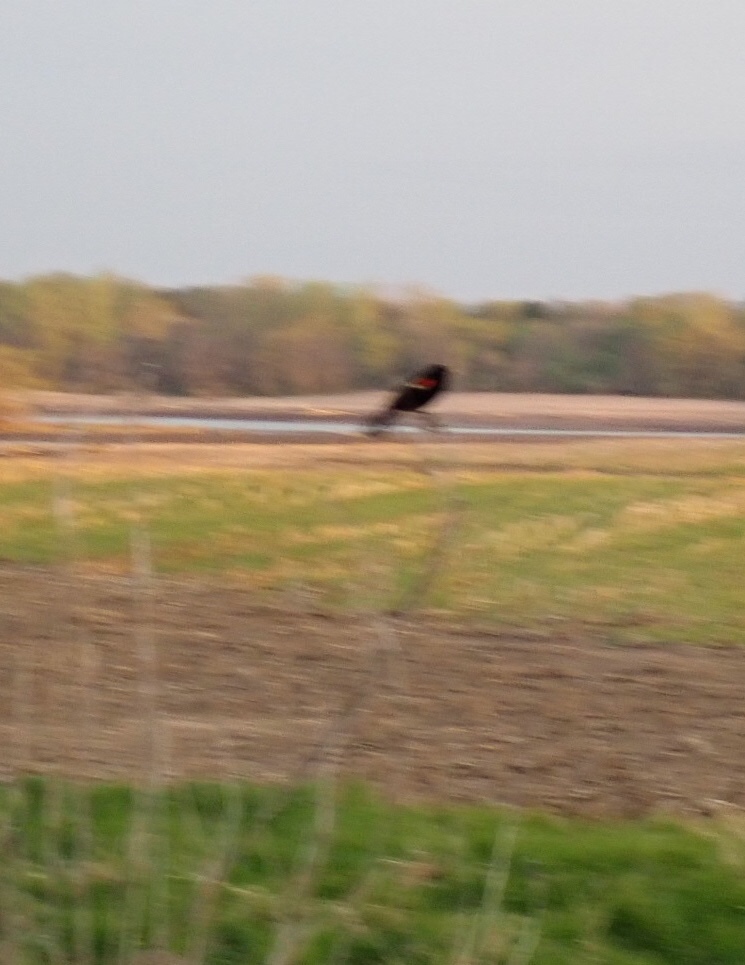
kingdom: Animalia
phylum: Chordata
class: Aves
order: Passeriformes
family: Icteridae
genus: Agelaius
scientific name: Agelaius phoeniceus
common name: Red-winged blackbird
